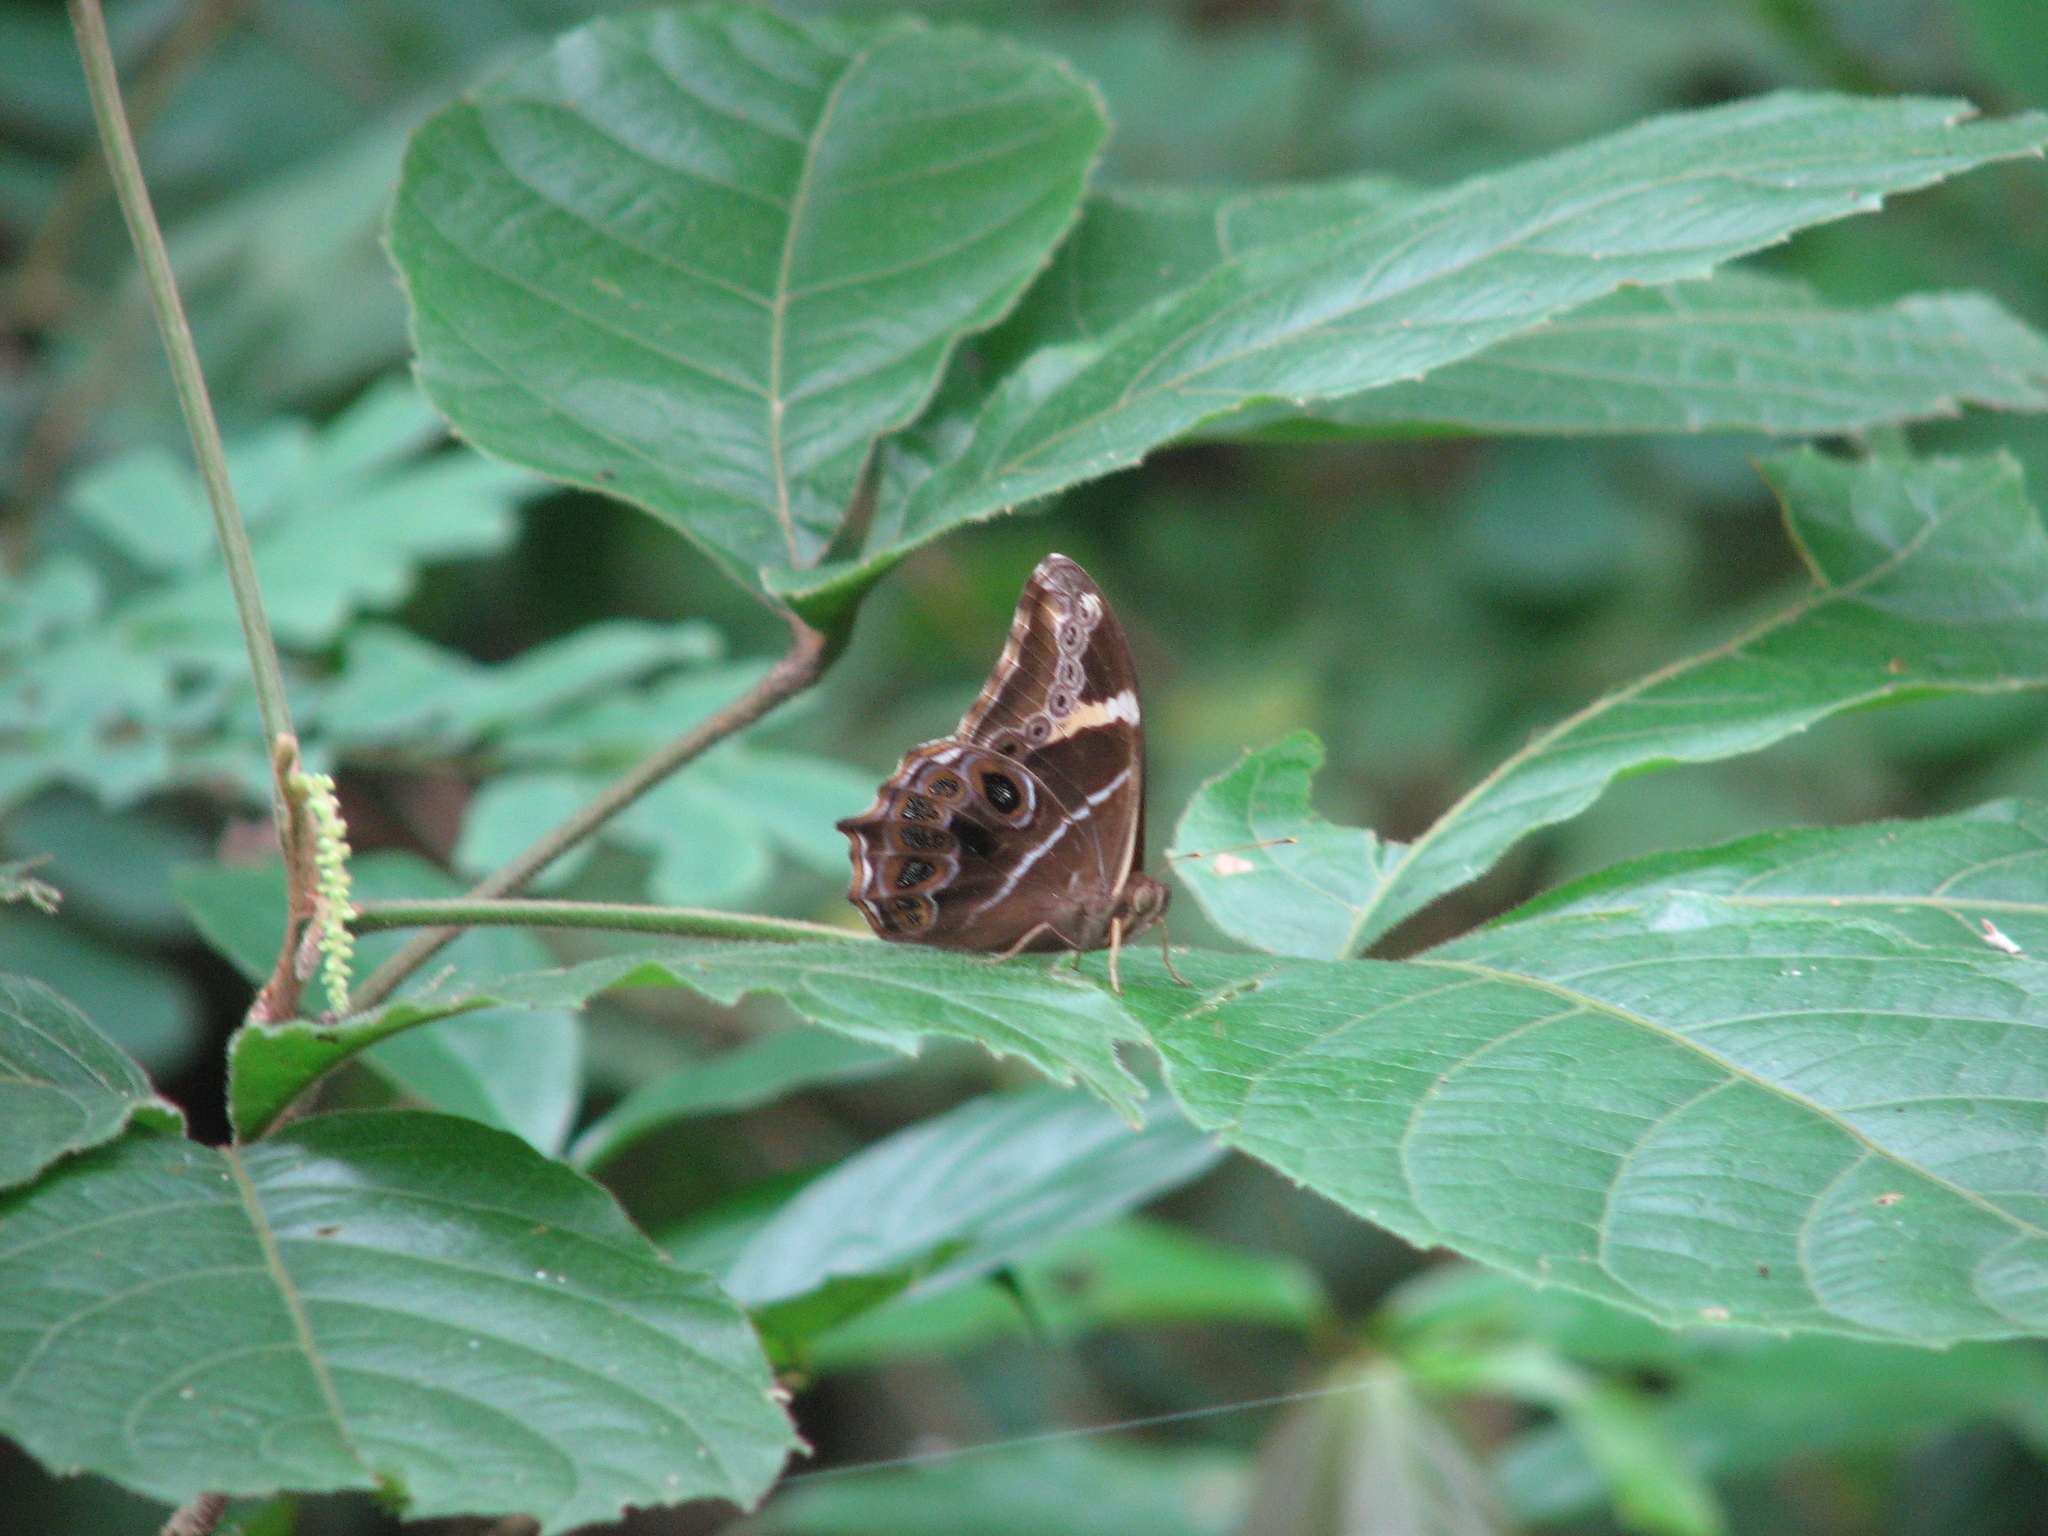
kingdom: Animalia
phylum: Arthropoda
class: Insecta
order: Lepidoptera
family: Nymphalidae
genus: Lethe
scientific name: Lethe europa
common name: Bamboo treebrown
